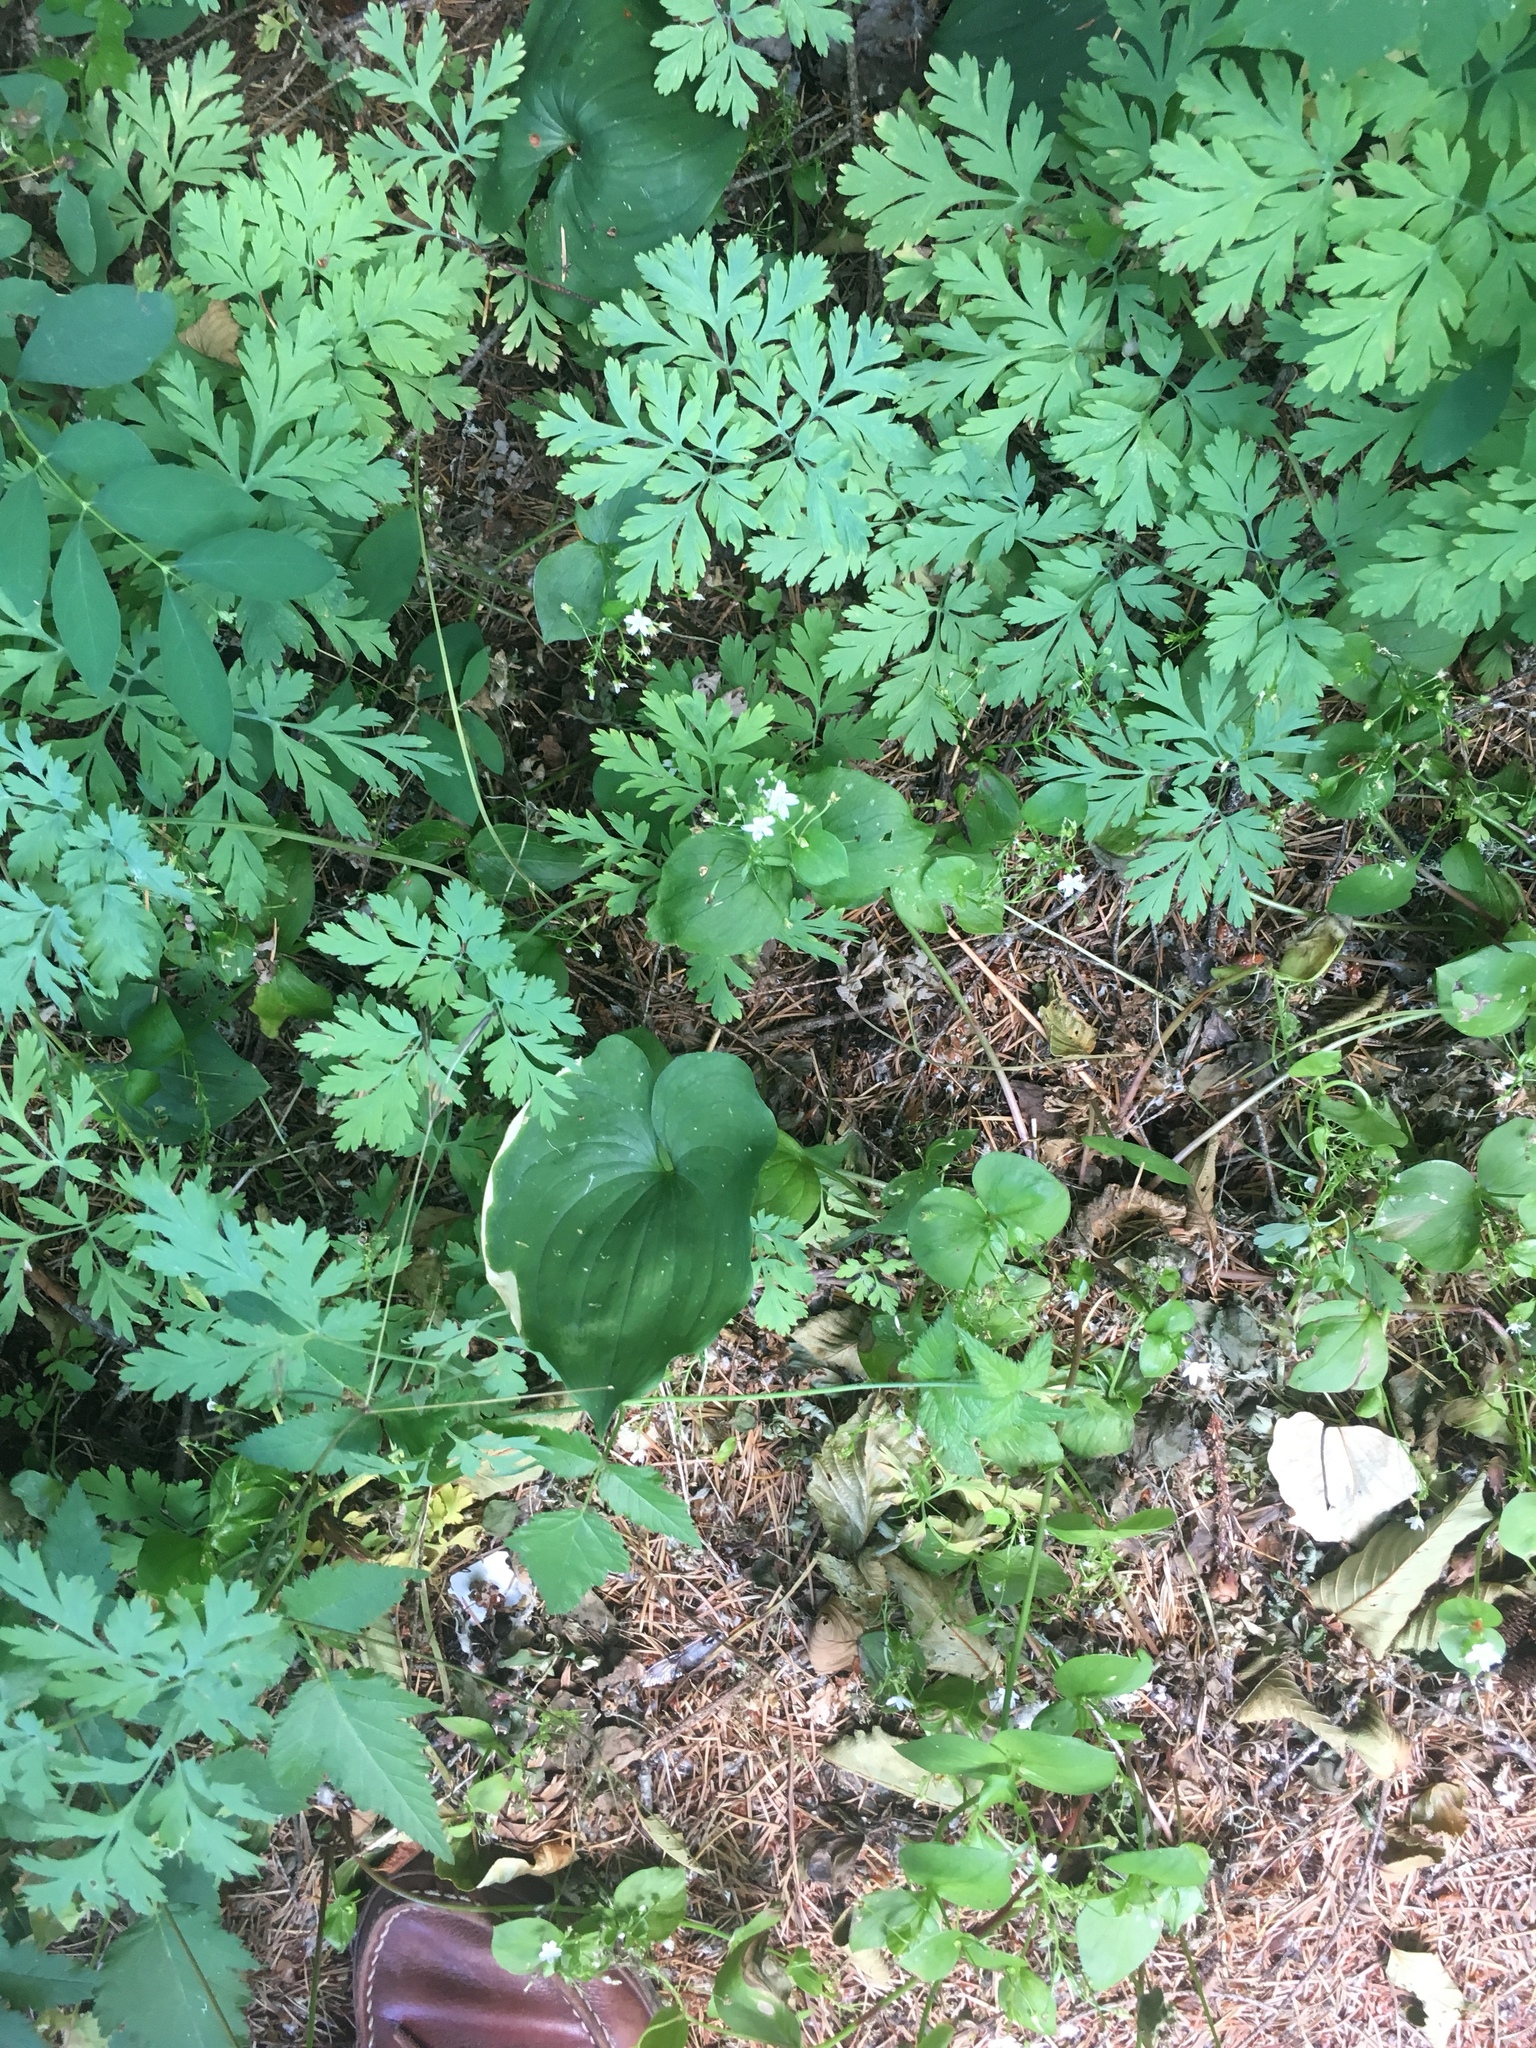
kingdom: Plantae
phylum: Tracheophyta
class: Liliopsida
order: Asparagales
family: Asparagaceae
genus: Maianthemum
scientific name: Maianthemum dilatatum
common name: False lily-of-the-valley
